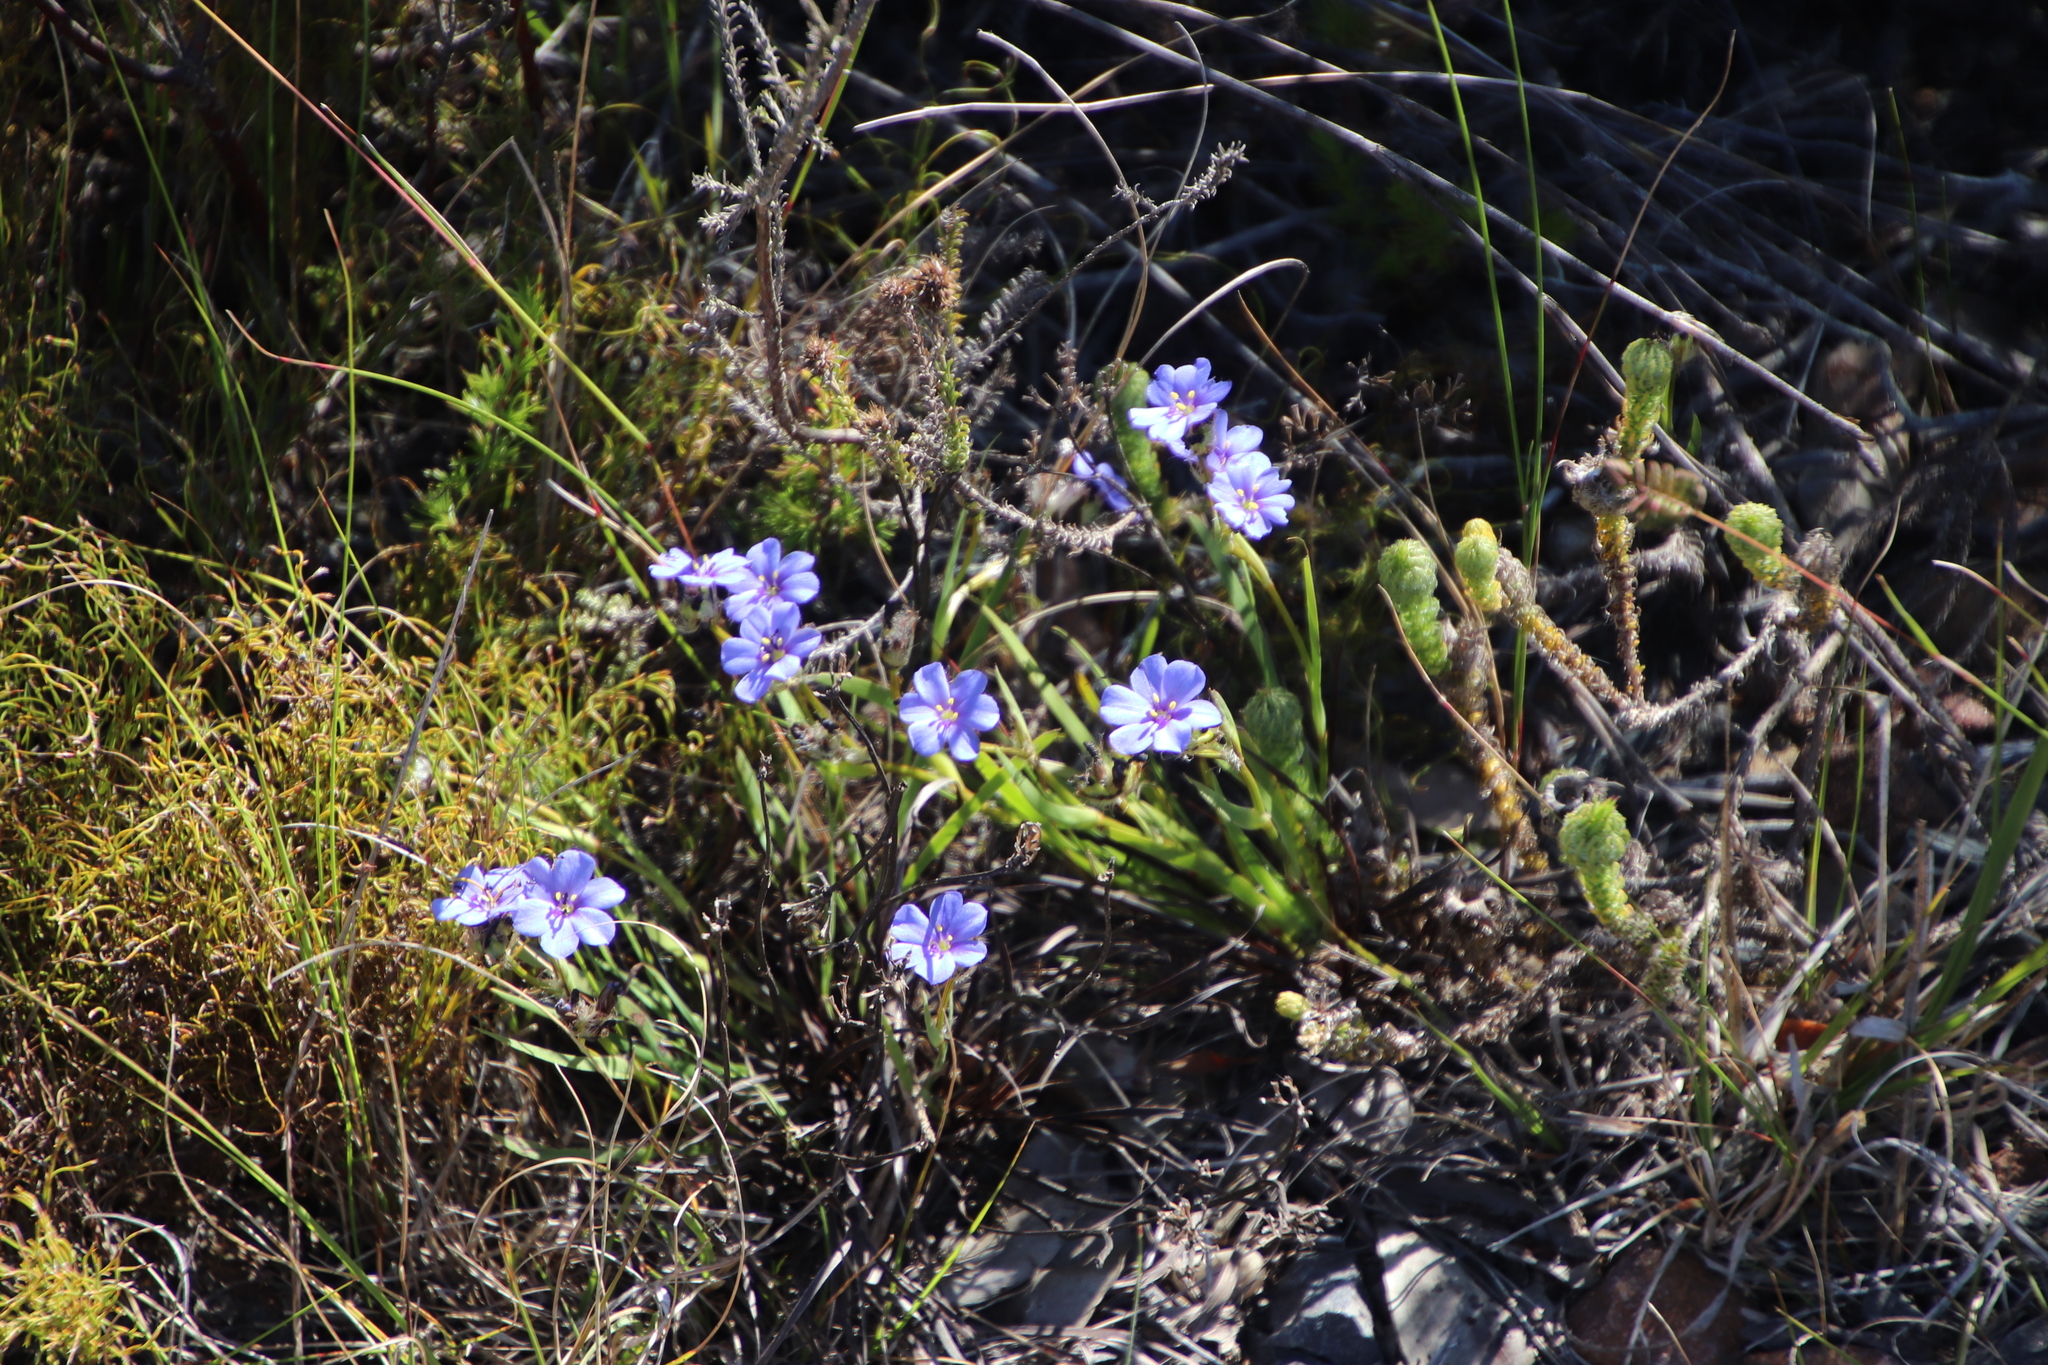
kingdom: Plantae
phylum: Tracheophyta
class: Liliopsida
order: Asparagales
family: Iridaceae
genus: Aristea
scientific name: Aristea africana
